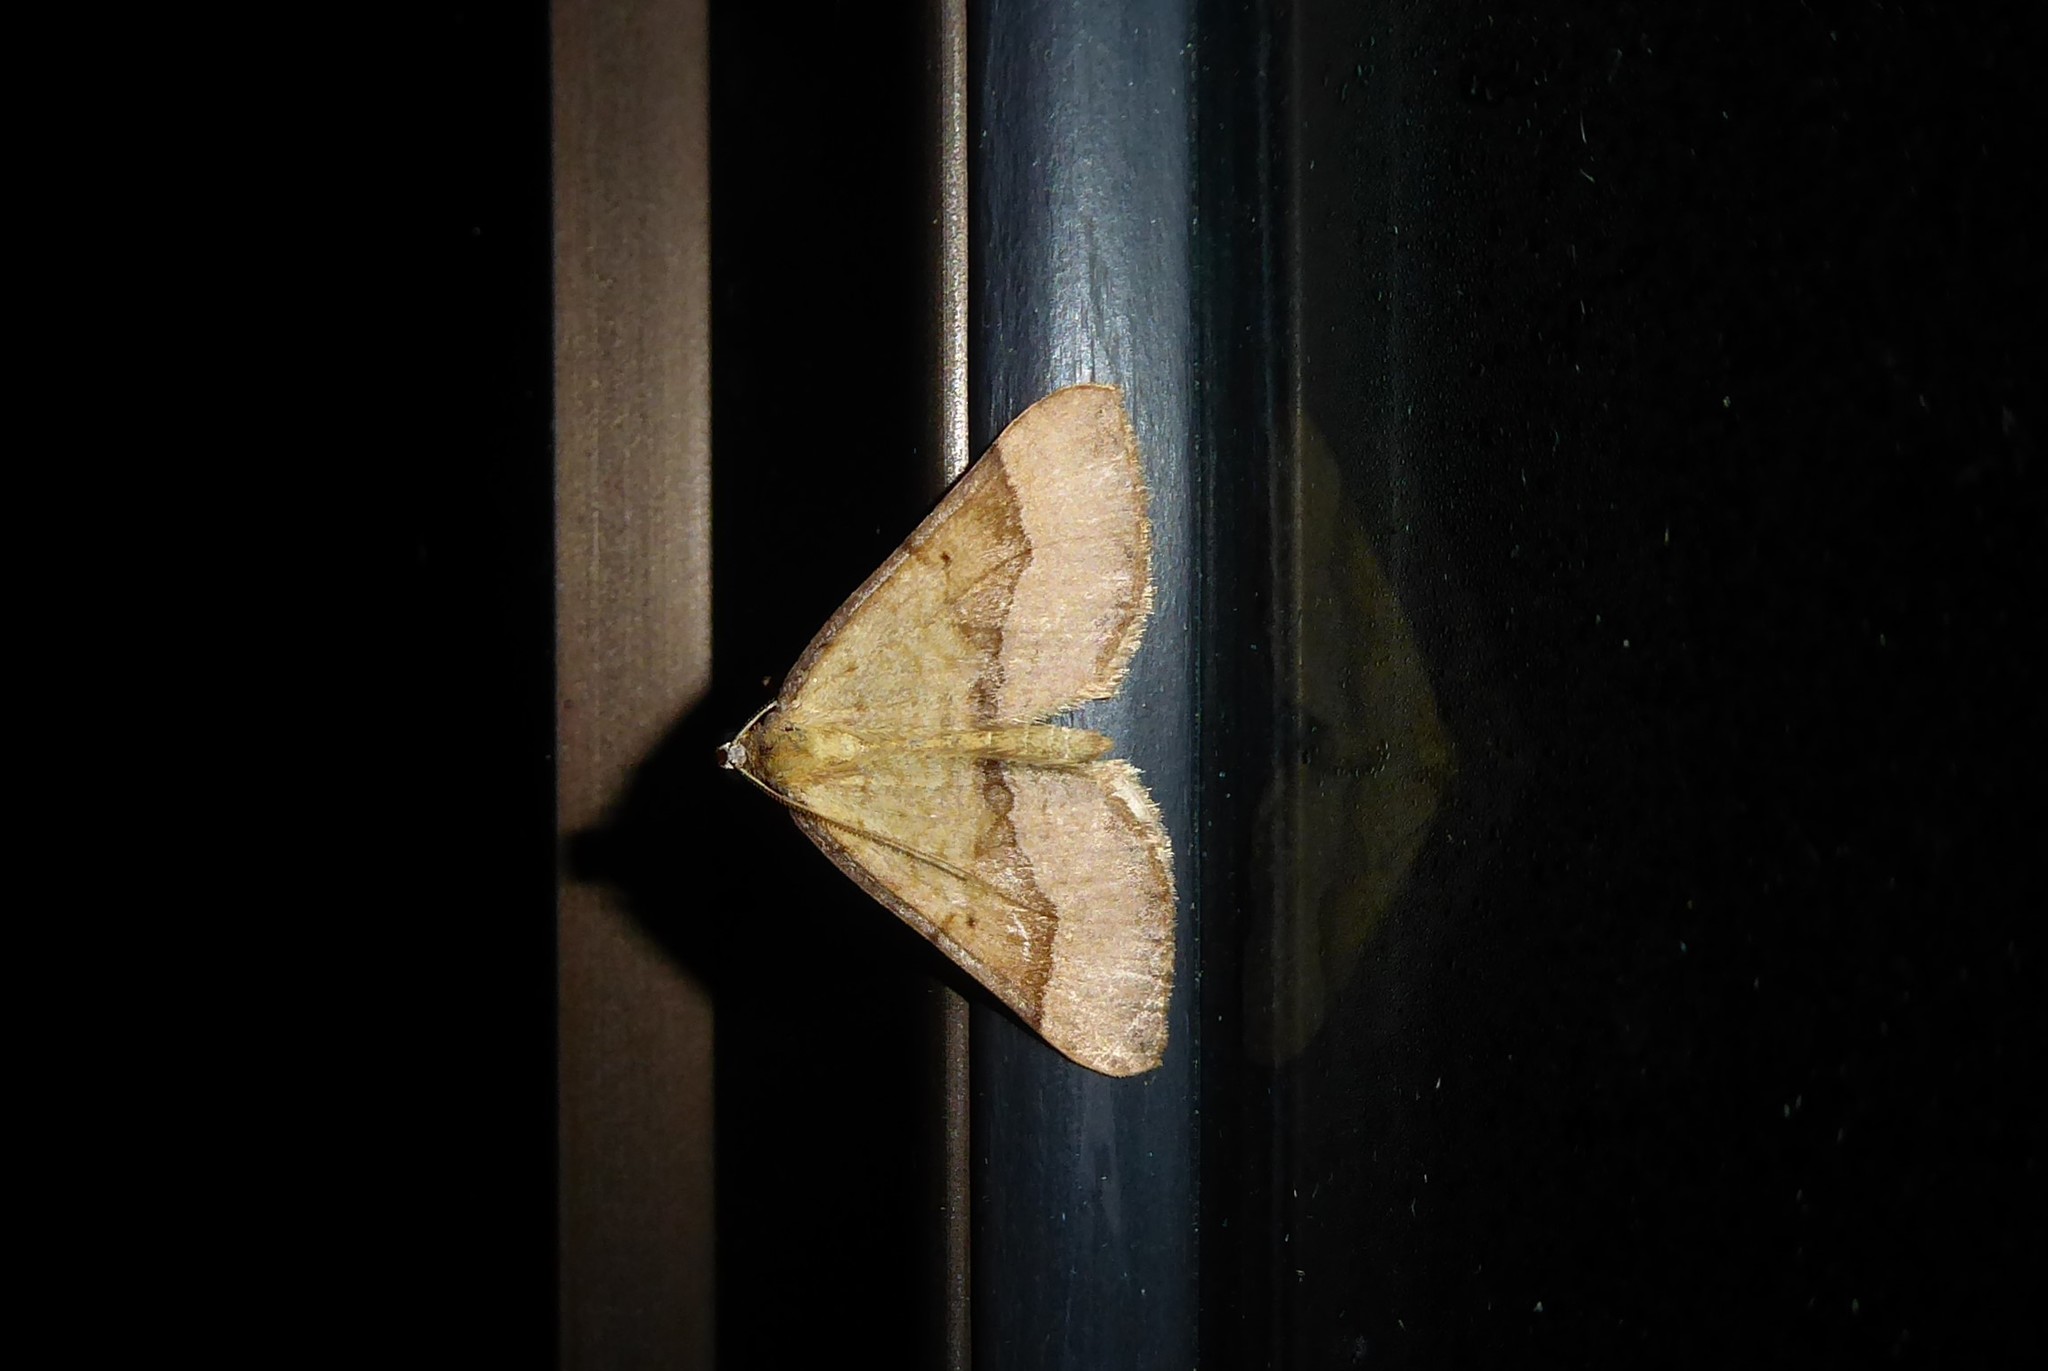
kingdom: Animalia
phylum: Arthropoda
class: Insecta
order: Lepidoptera
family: Geometridae
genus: Anachloris
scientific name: Anachloris subochraria
